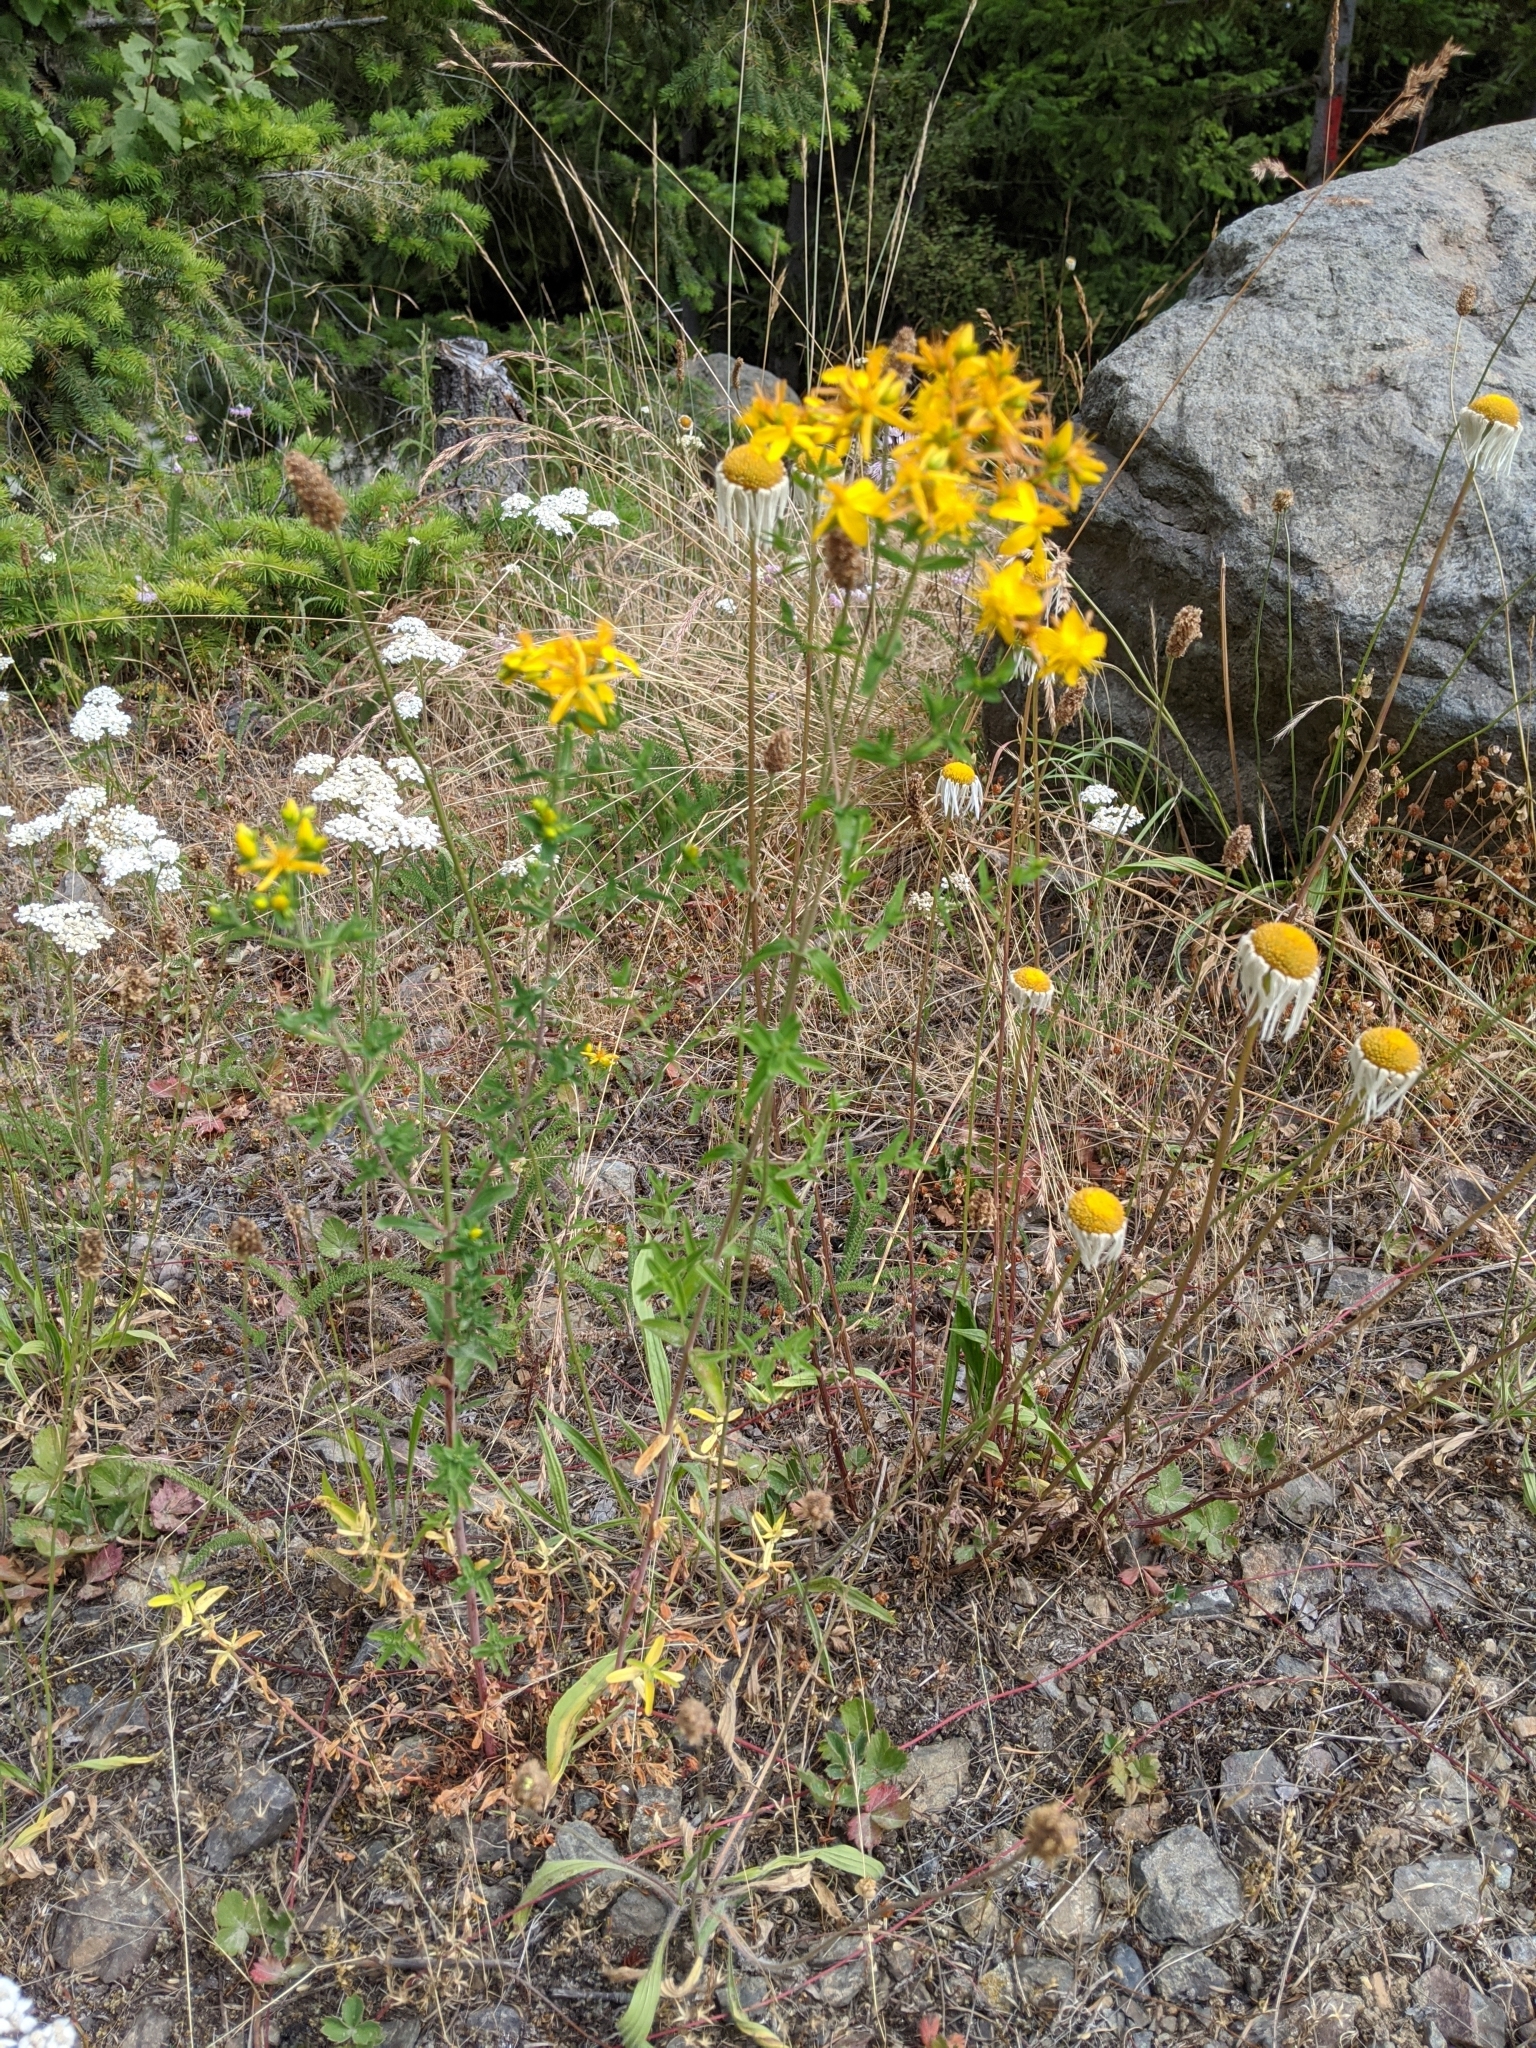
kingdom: Plantae
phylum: Tracheophyta
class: Magnoliopsida
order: Malpighiales
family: Hypericaceae
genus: Hypericum
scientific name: Hypericum perforatum
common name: Common st. johnswort
